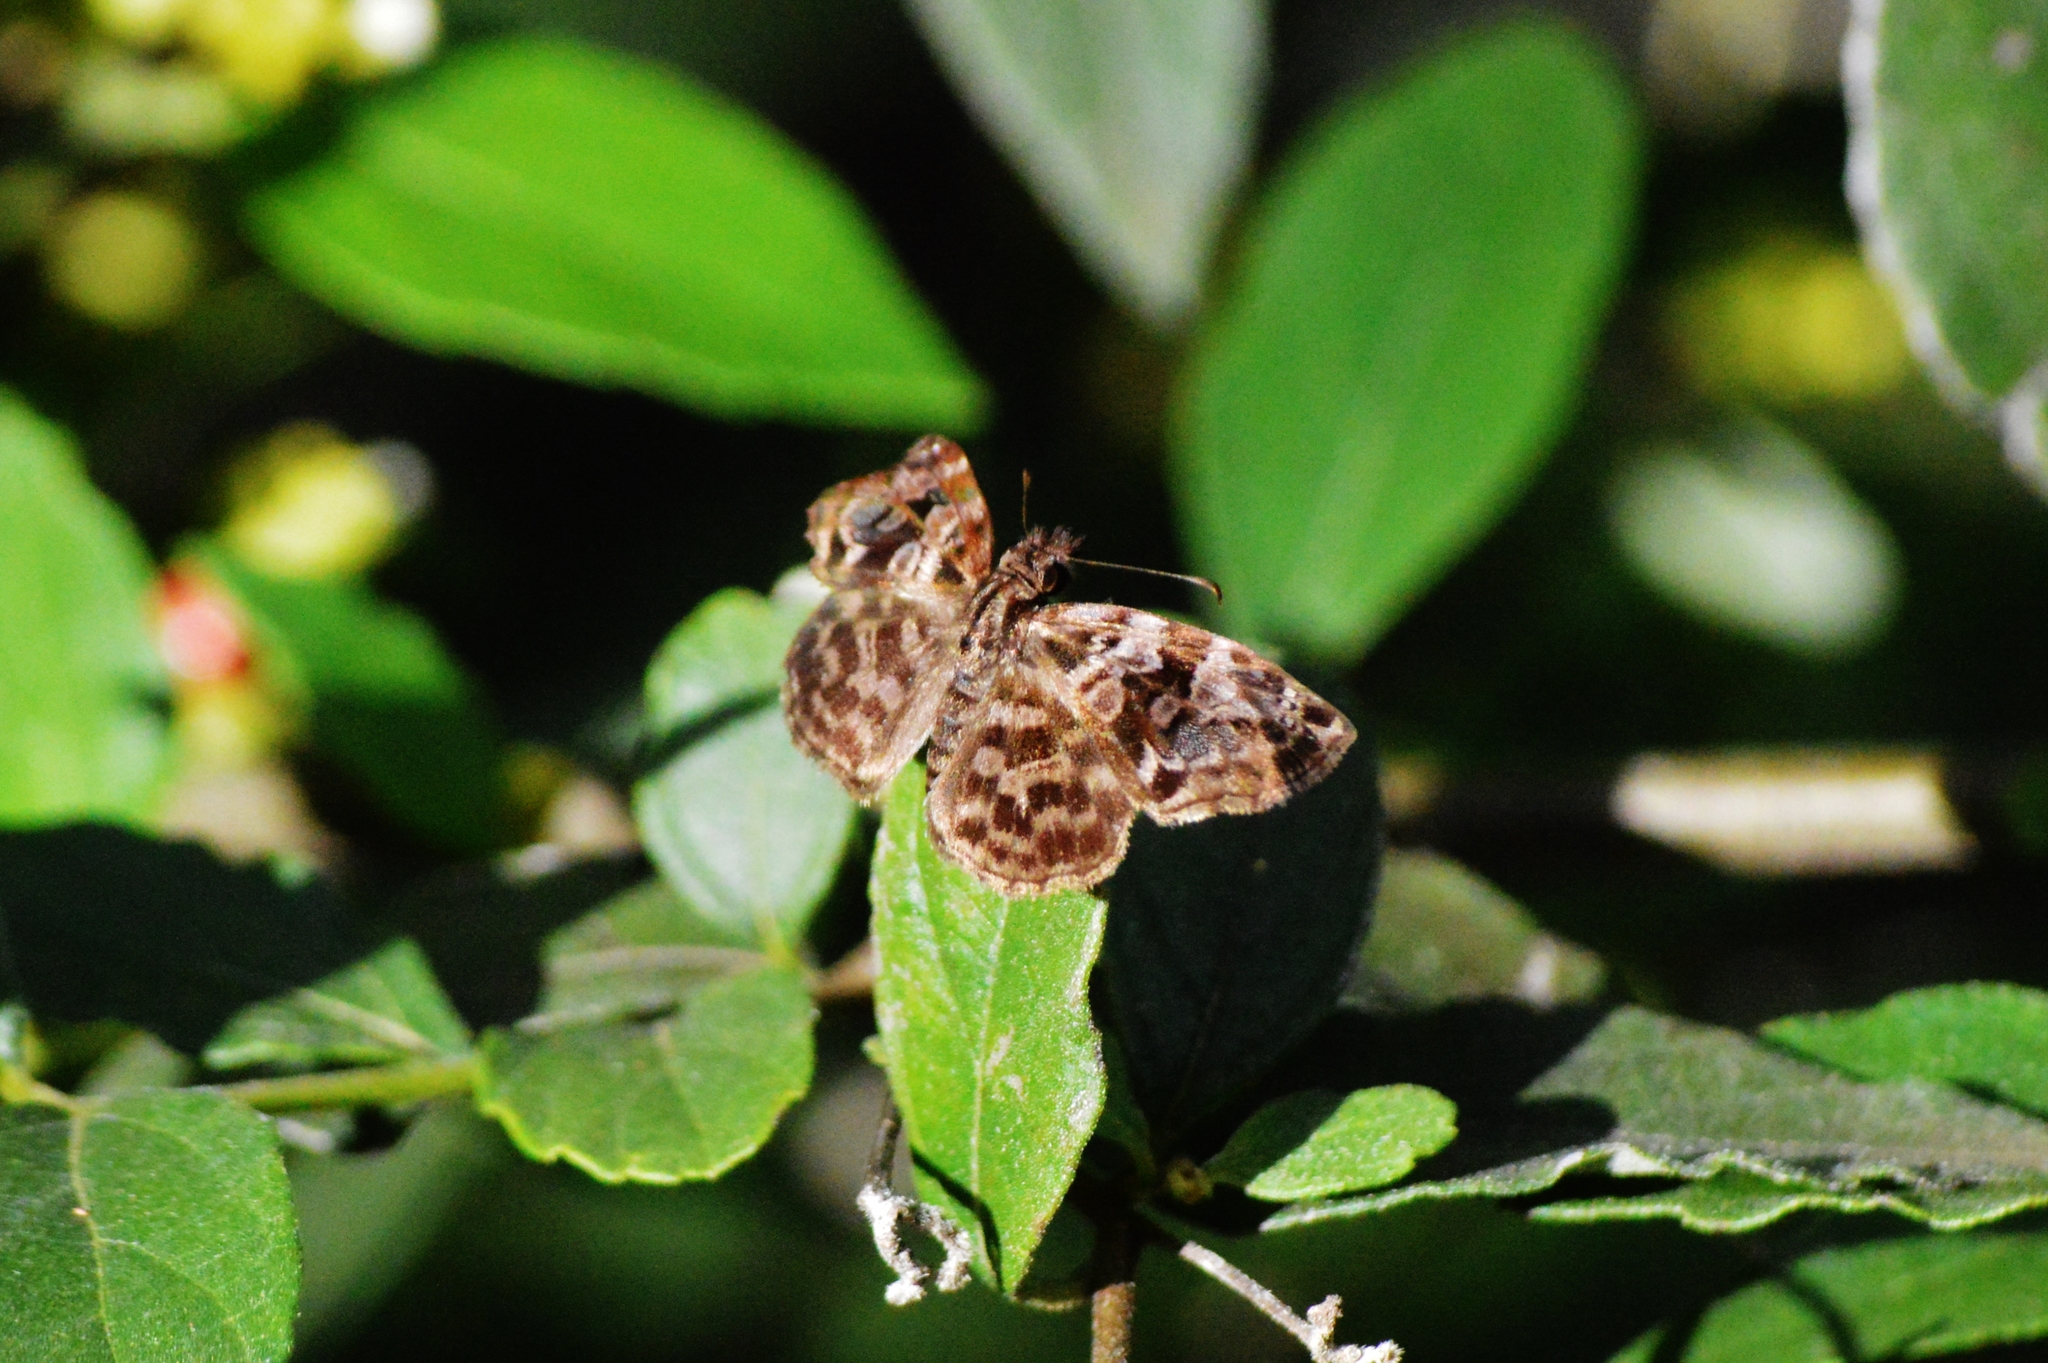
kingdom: Animalia
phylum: Arthropoda
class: Insecta
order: Lepidoptera
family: Hesperiidae
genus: Gorgythion
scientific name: Gorgythion begga
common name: Variegated skipper
